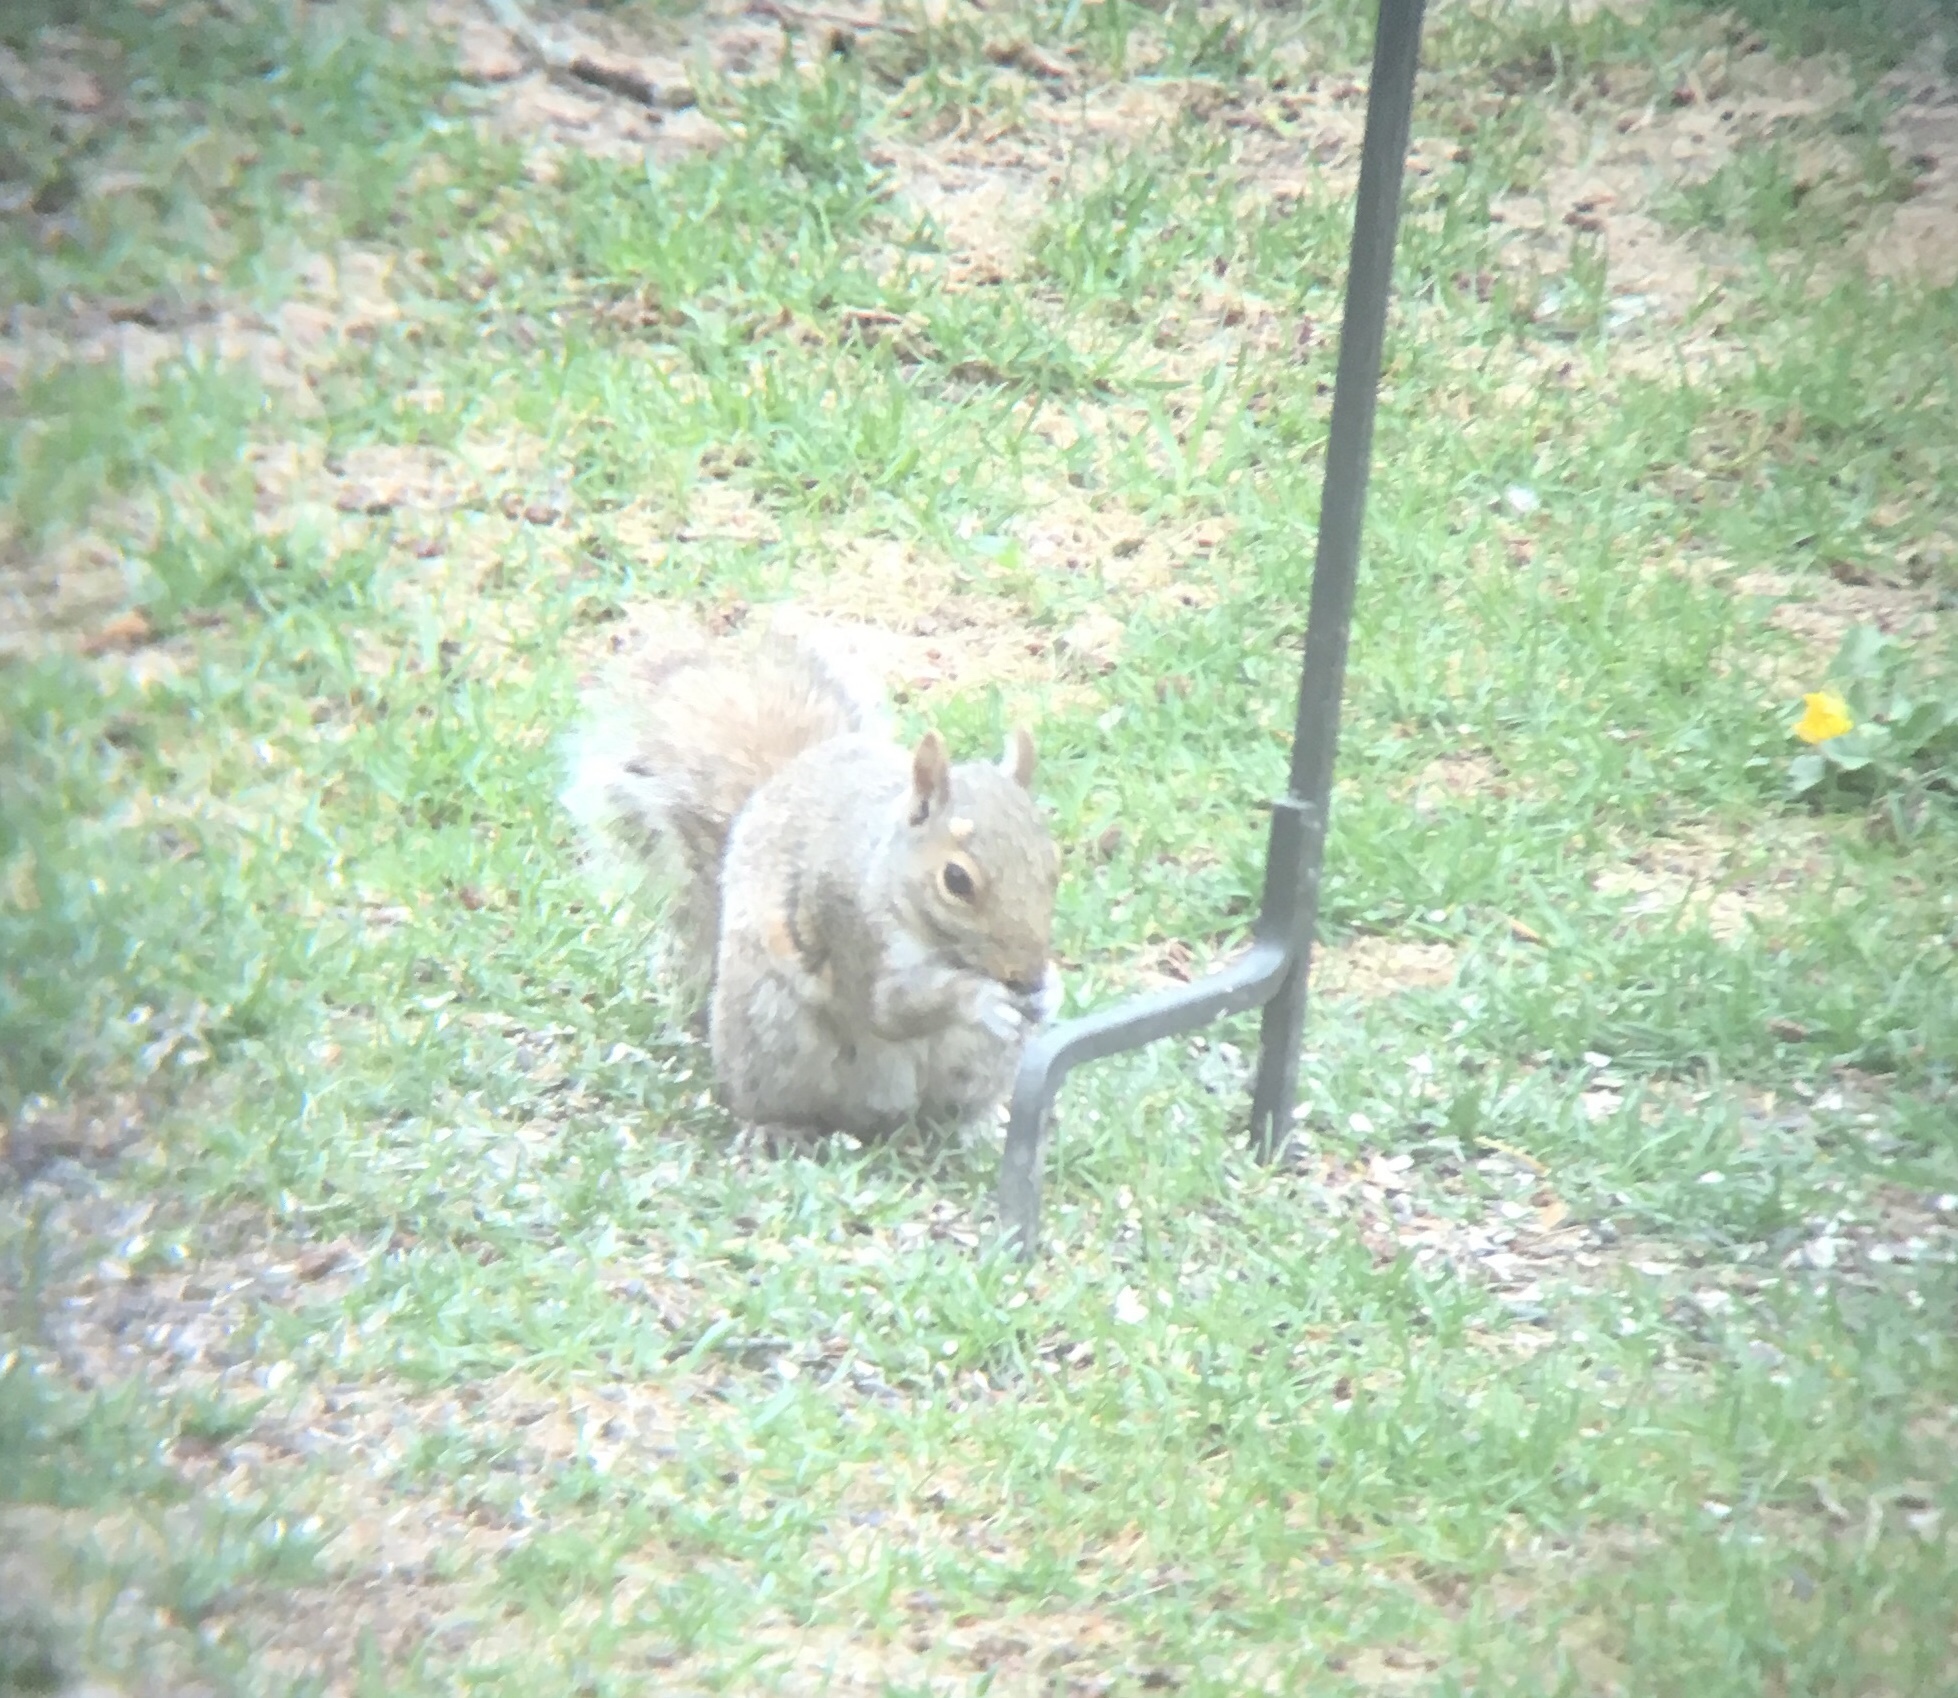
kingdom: Animalia
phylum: Chordata
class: Mammalia
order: Rodentia
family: Sciuridae
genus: Sciurus
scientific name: Sciurus carolinensis
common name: Eastern gray squirrel
